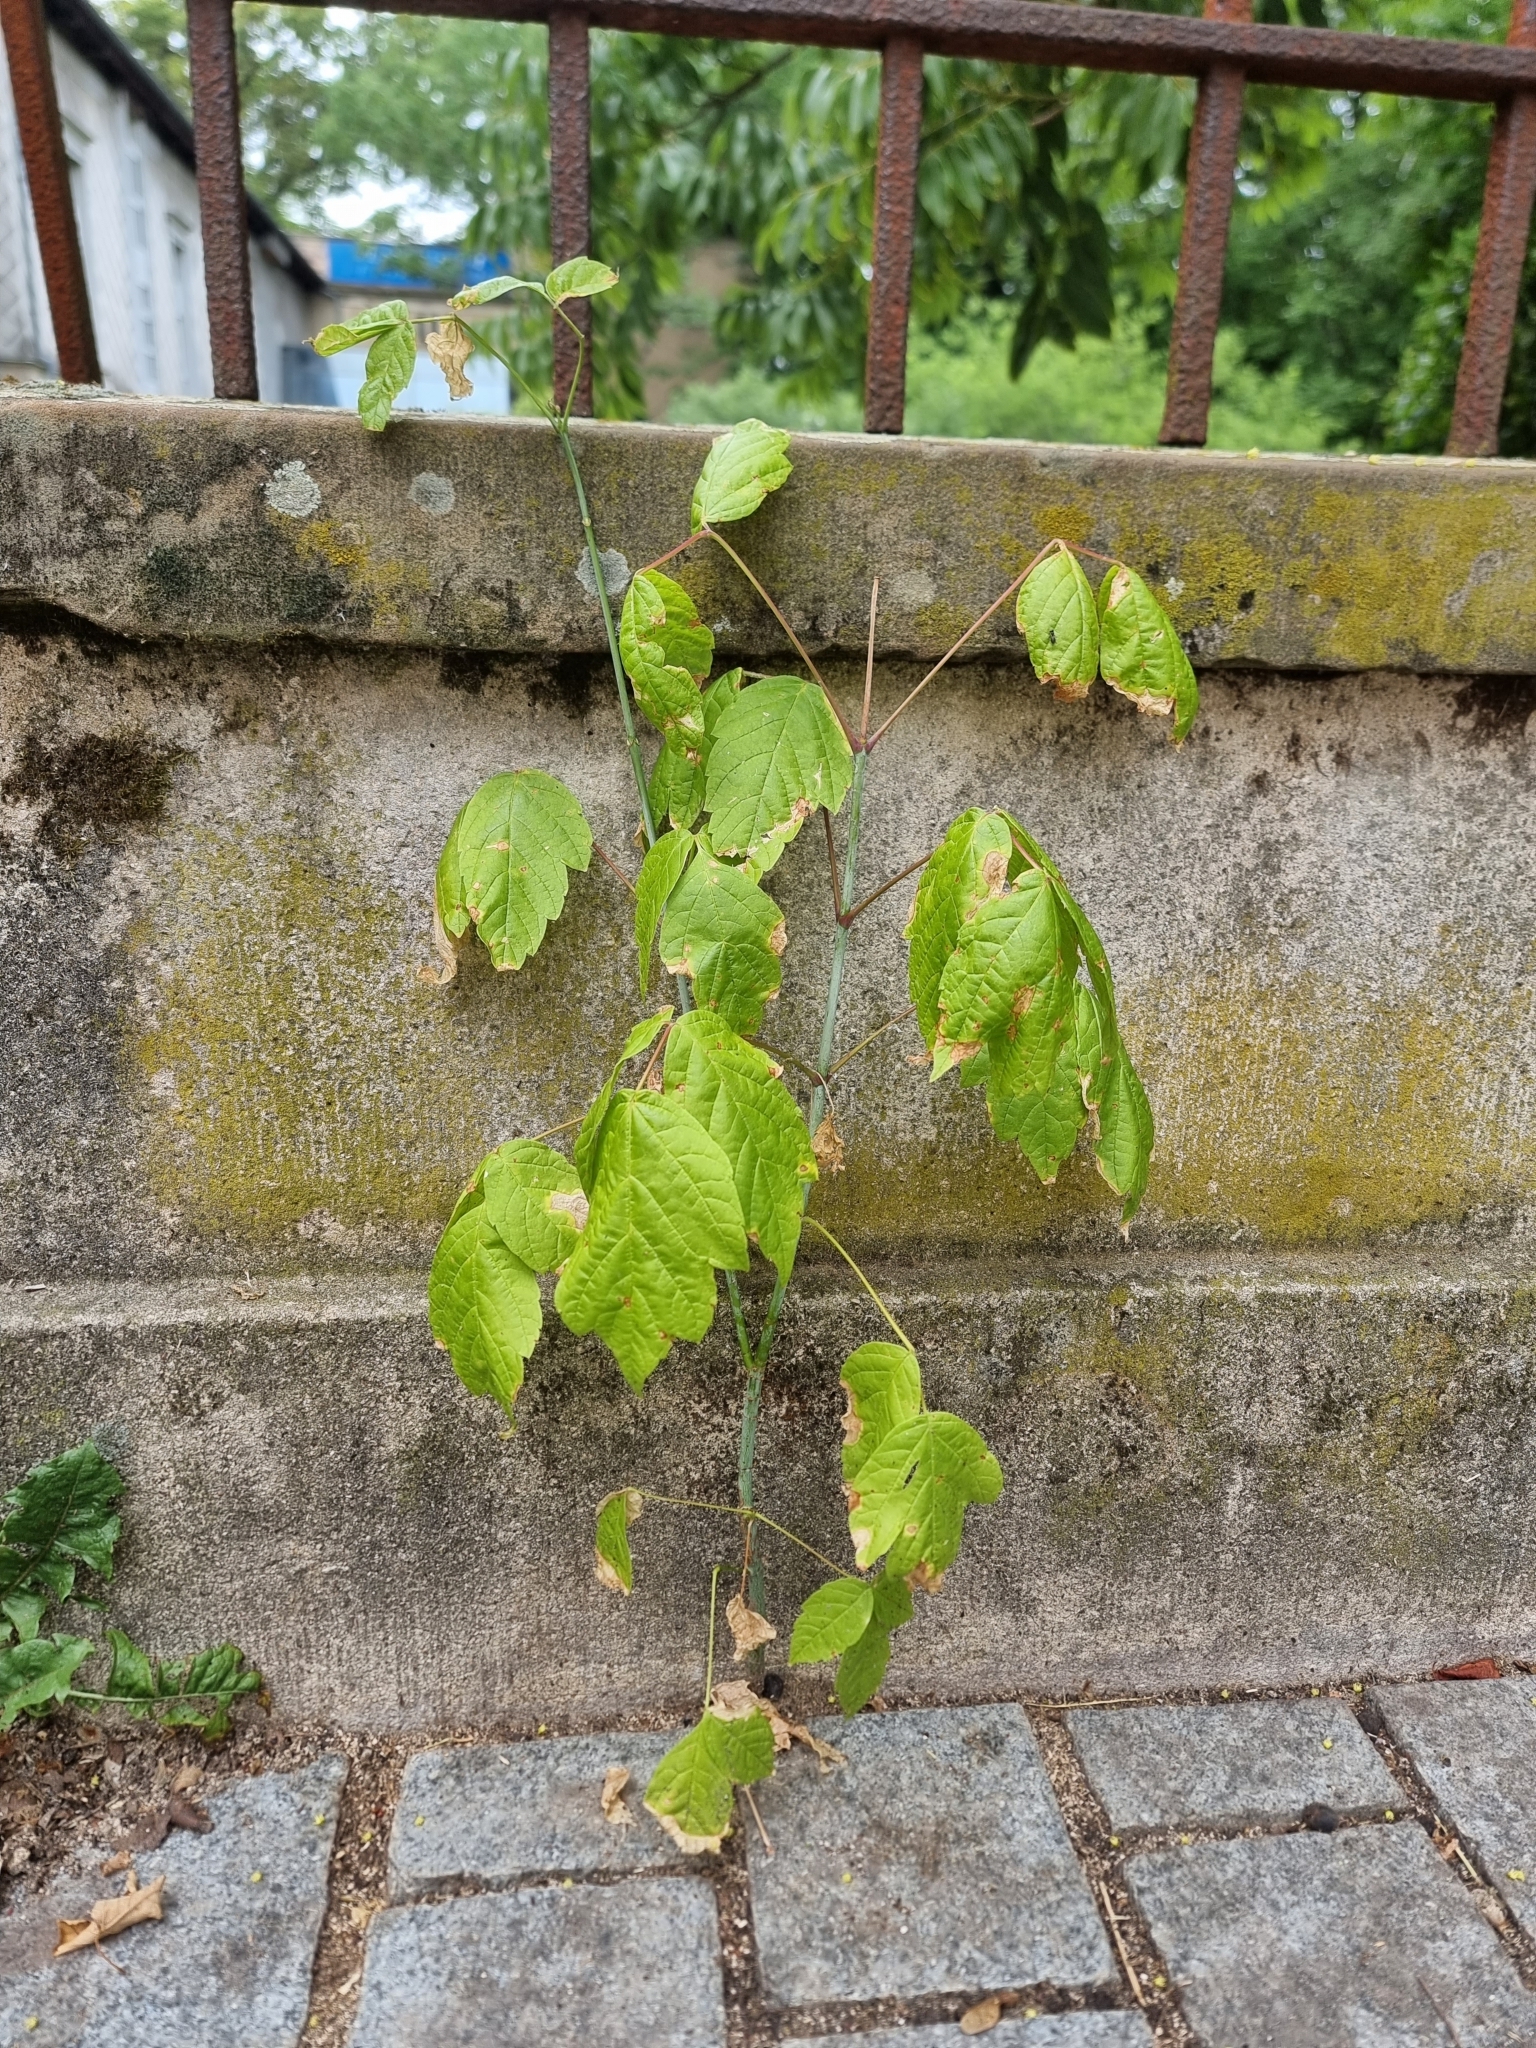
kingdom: Plantae
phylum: Tracheophyta
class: Magnoliopsida
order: Sapindales
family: Sapindaceae
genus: Acer
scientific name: Acer negundo
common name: Ashleaf maple
